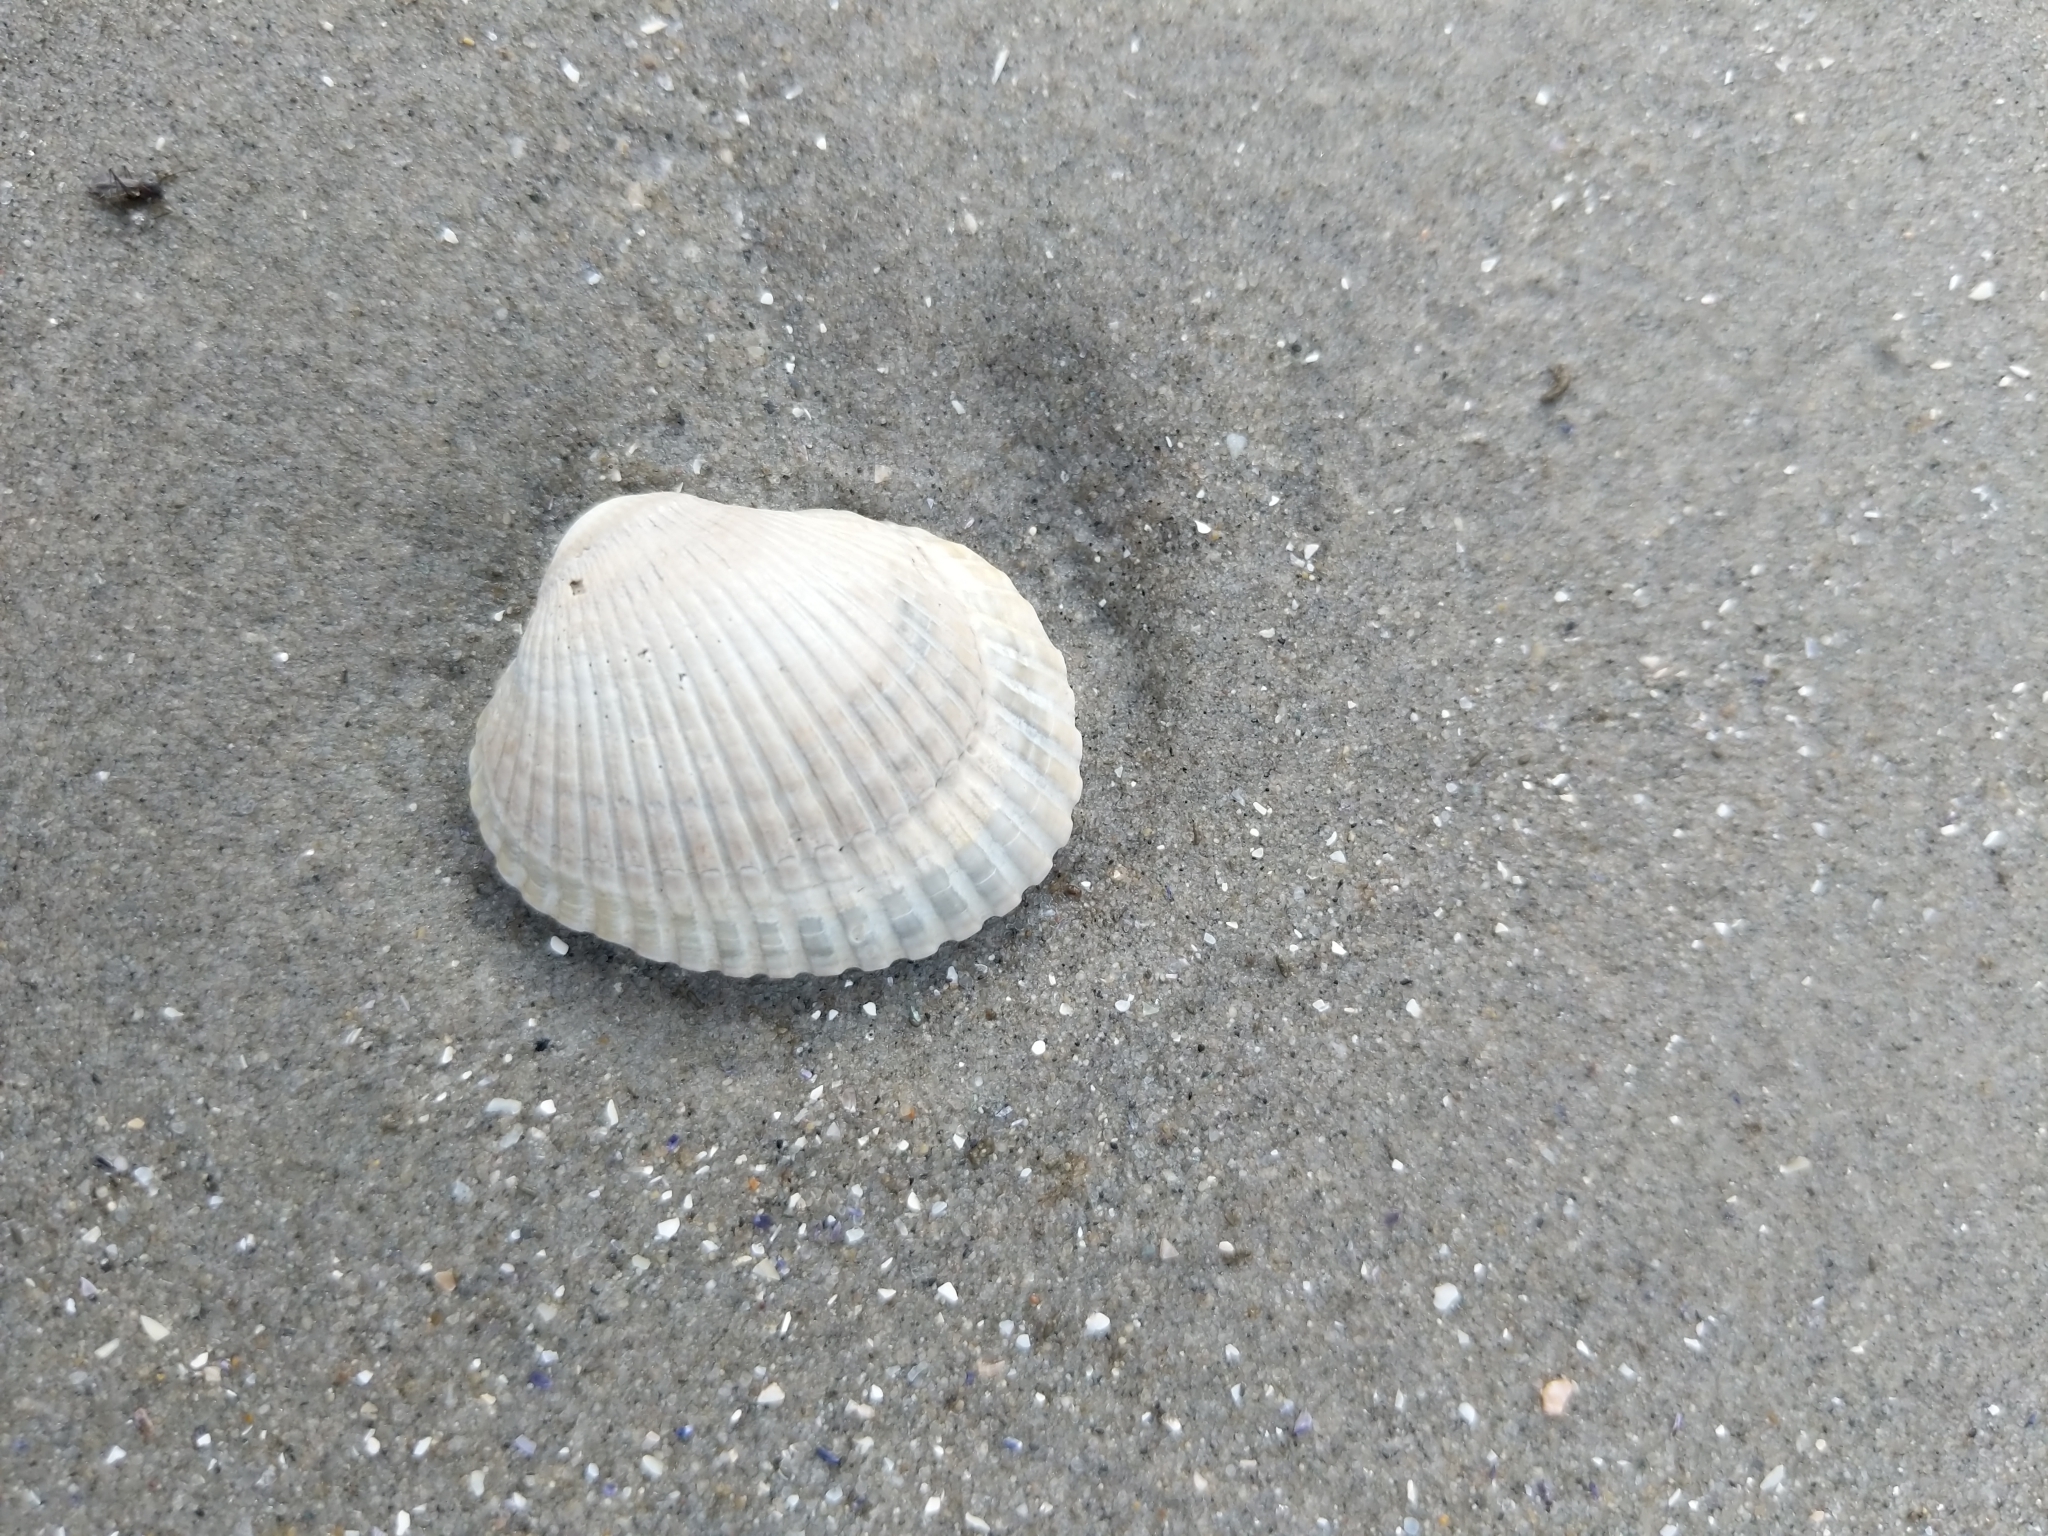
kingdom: Animalia
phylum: Mollusca
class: Bivalvia
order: Arcida
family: Arcidae
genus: Lunarca
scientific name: Lunarca ovalis
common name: Blood ark
